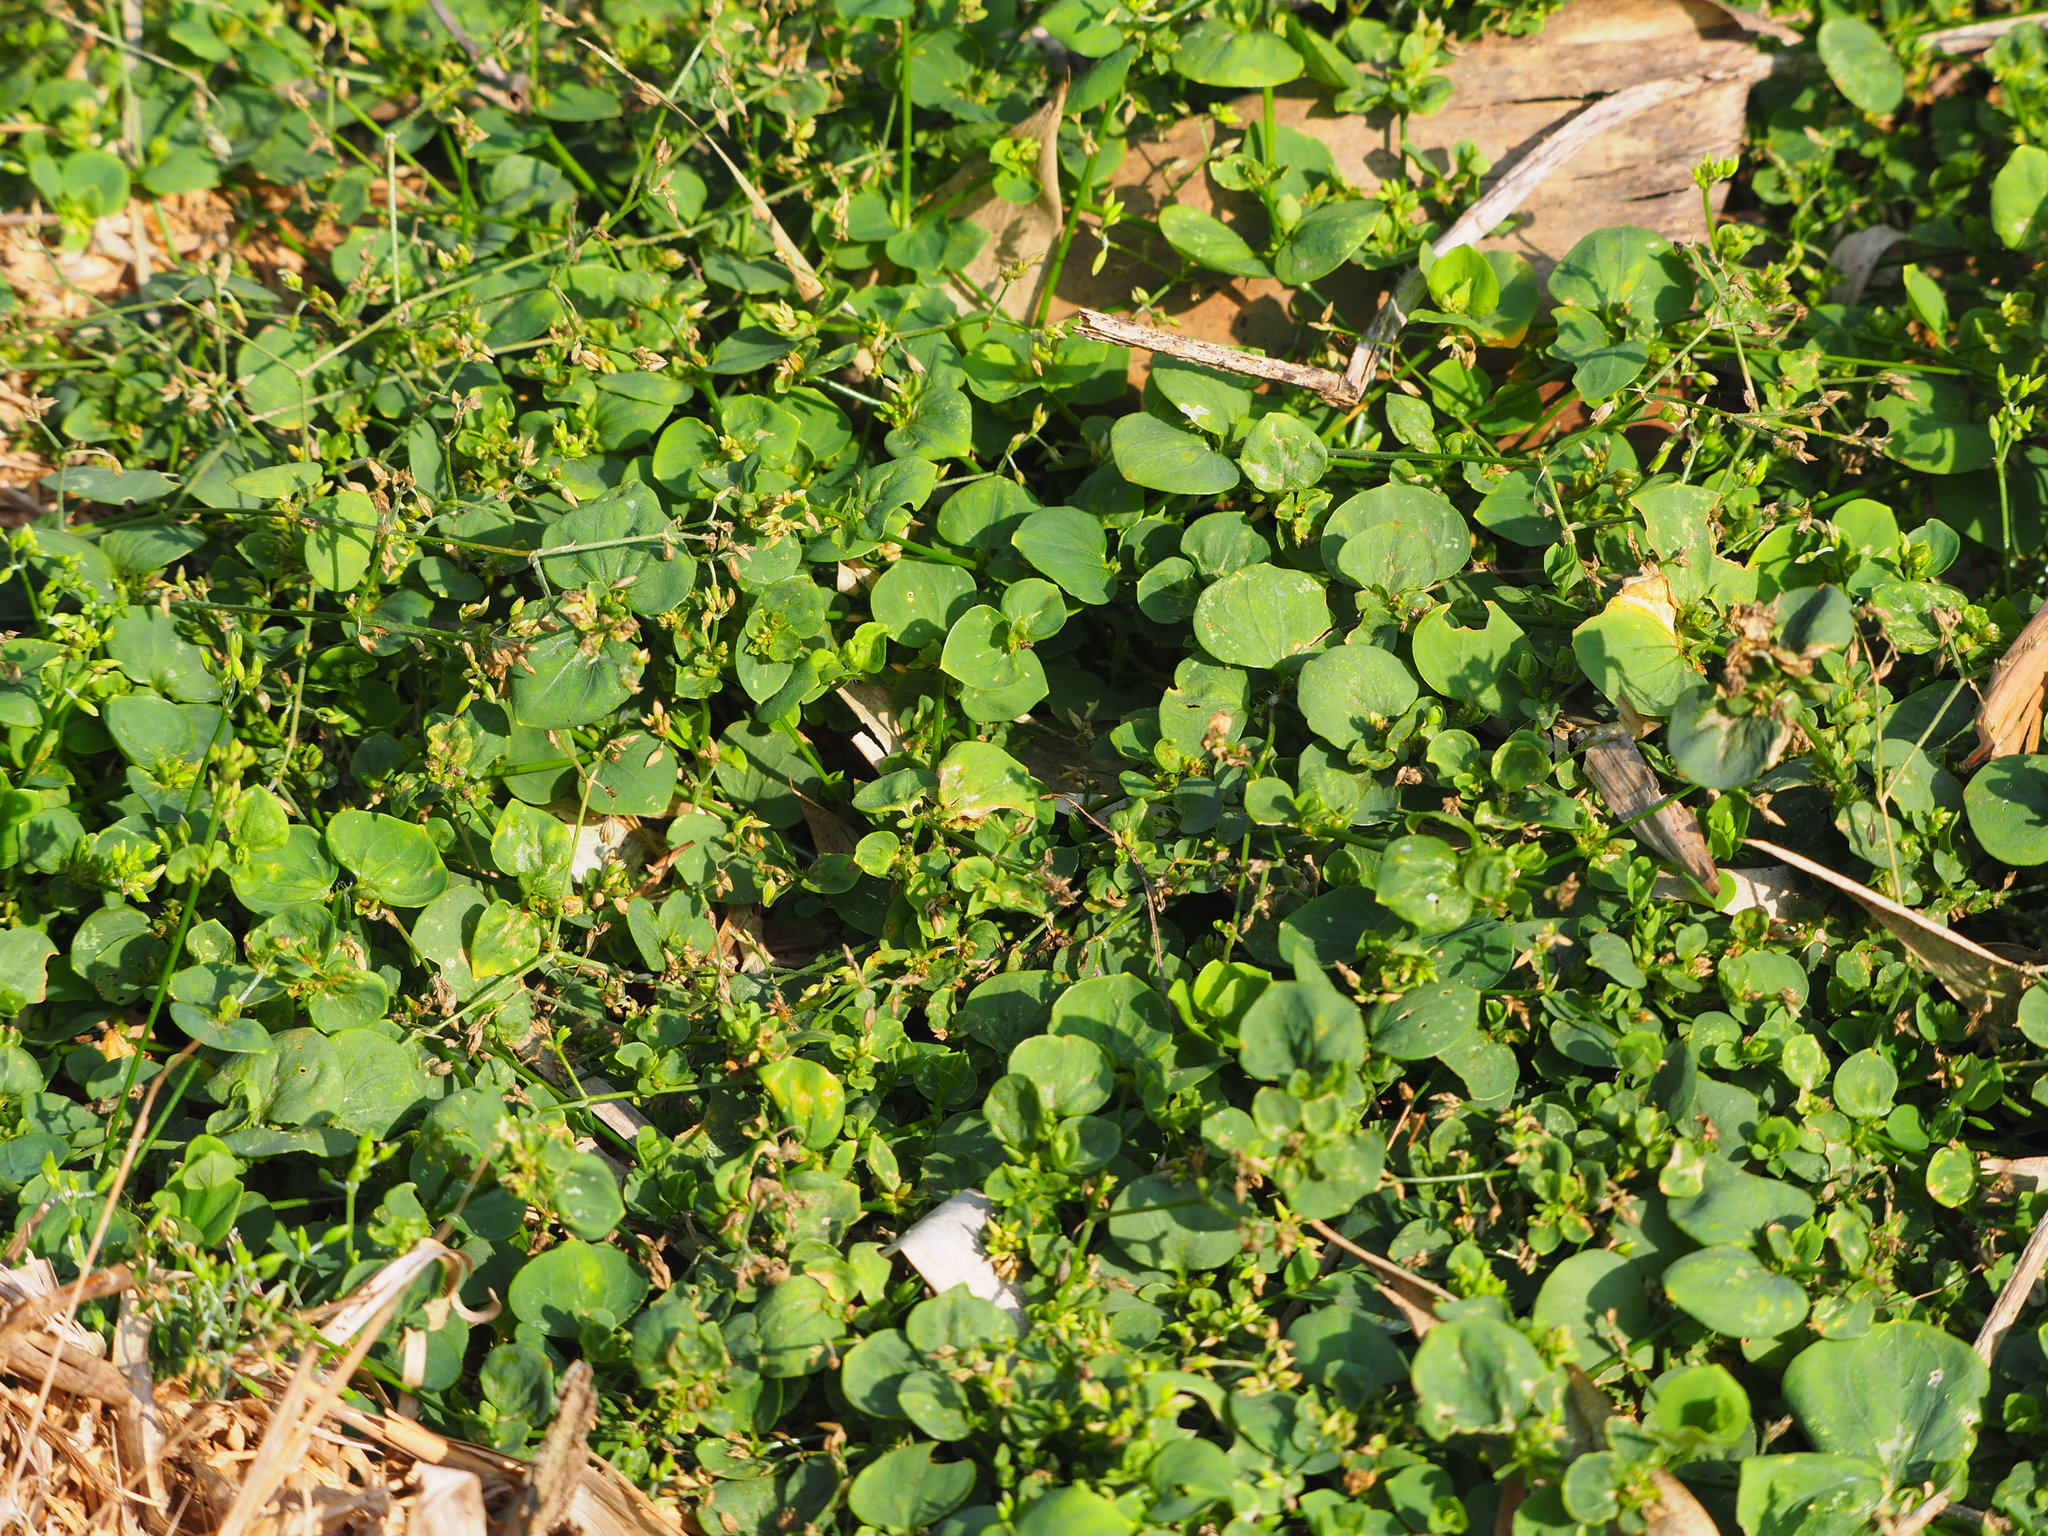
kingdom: Plantae
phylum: Tracheophyta
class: Magnoliopsida
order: Caryophyllales
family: Caryophyllaceae
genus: Drymaria
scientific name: Drymaria cordata
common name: Whitesnow
